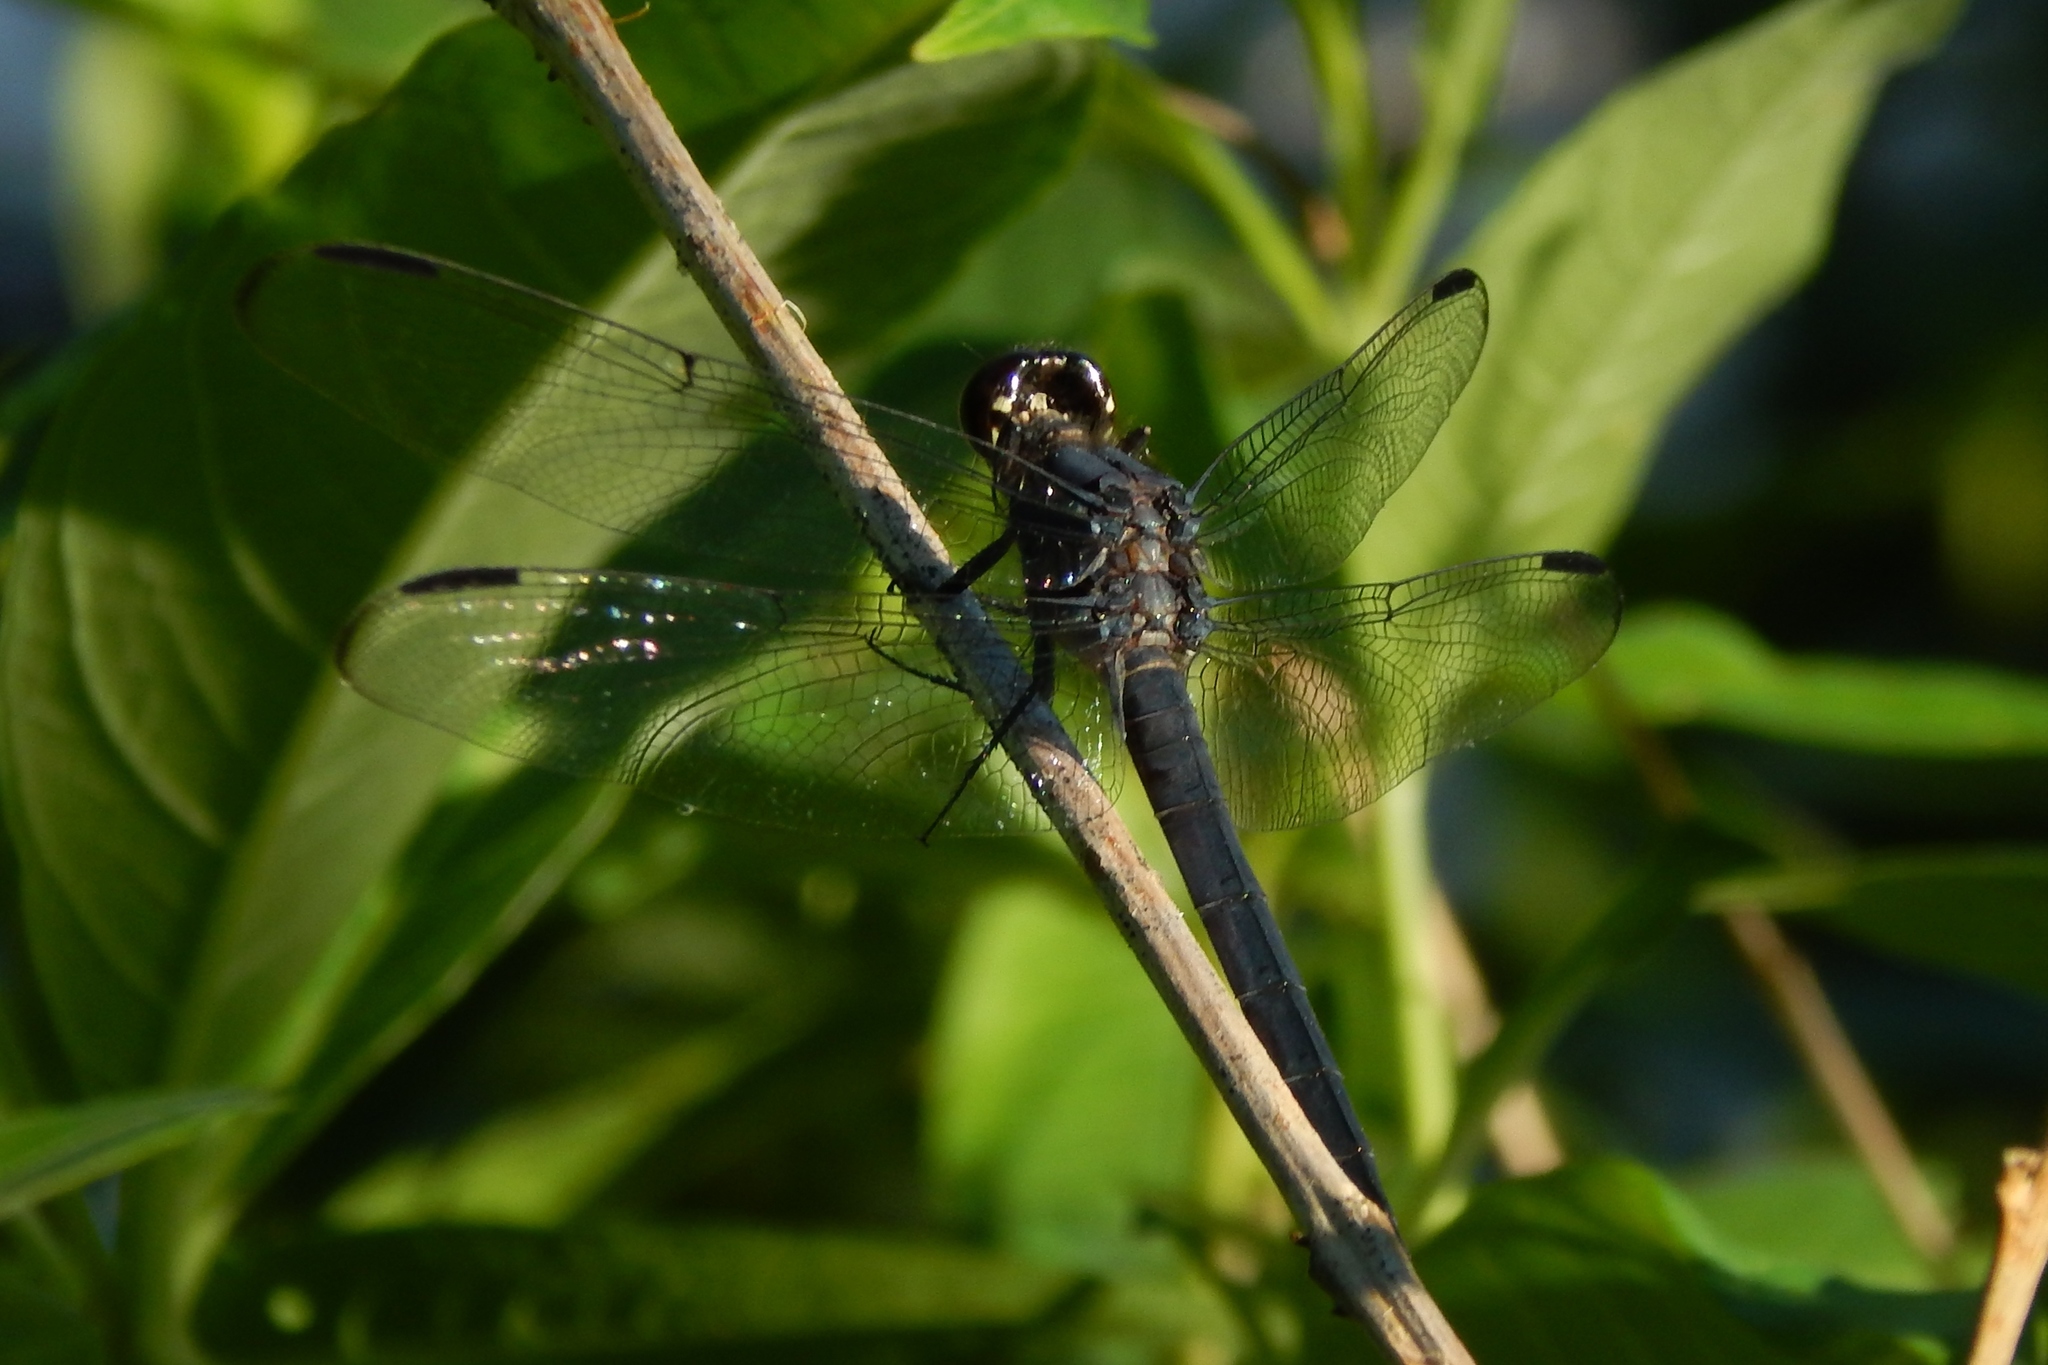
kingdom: Animalia
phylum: Arthropoda
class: Insecta
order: Odonata
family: Libellulidae
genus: Libellula
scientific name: Libellula incesta
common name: Slaty skimmer
